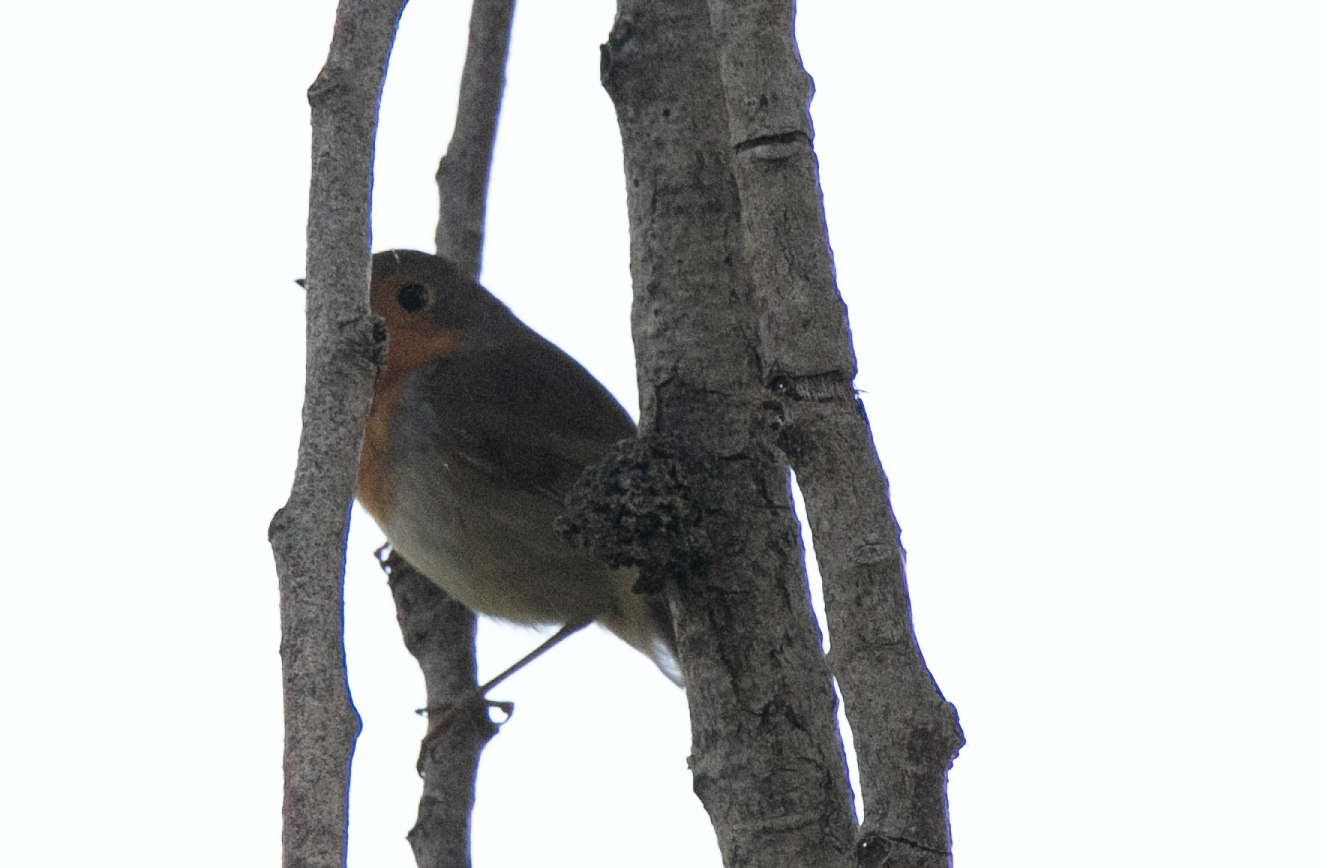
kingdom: Animalia
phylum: Chordata
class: Aves
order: Passeriformes
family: Muscicapidae
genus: Erithacus
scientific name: Erithacus rubecula
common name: European robin
